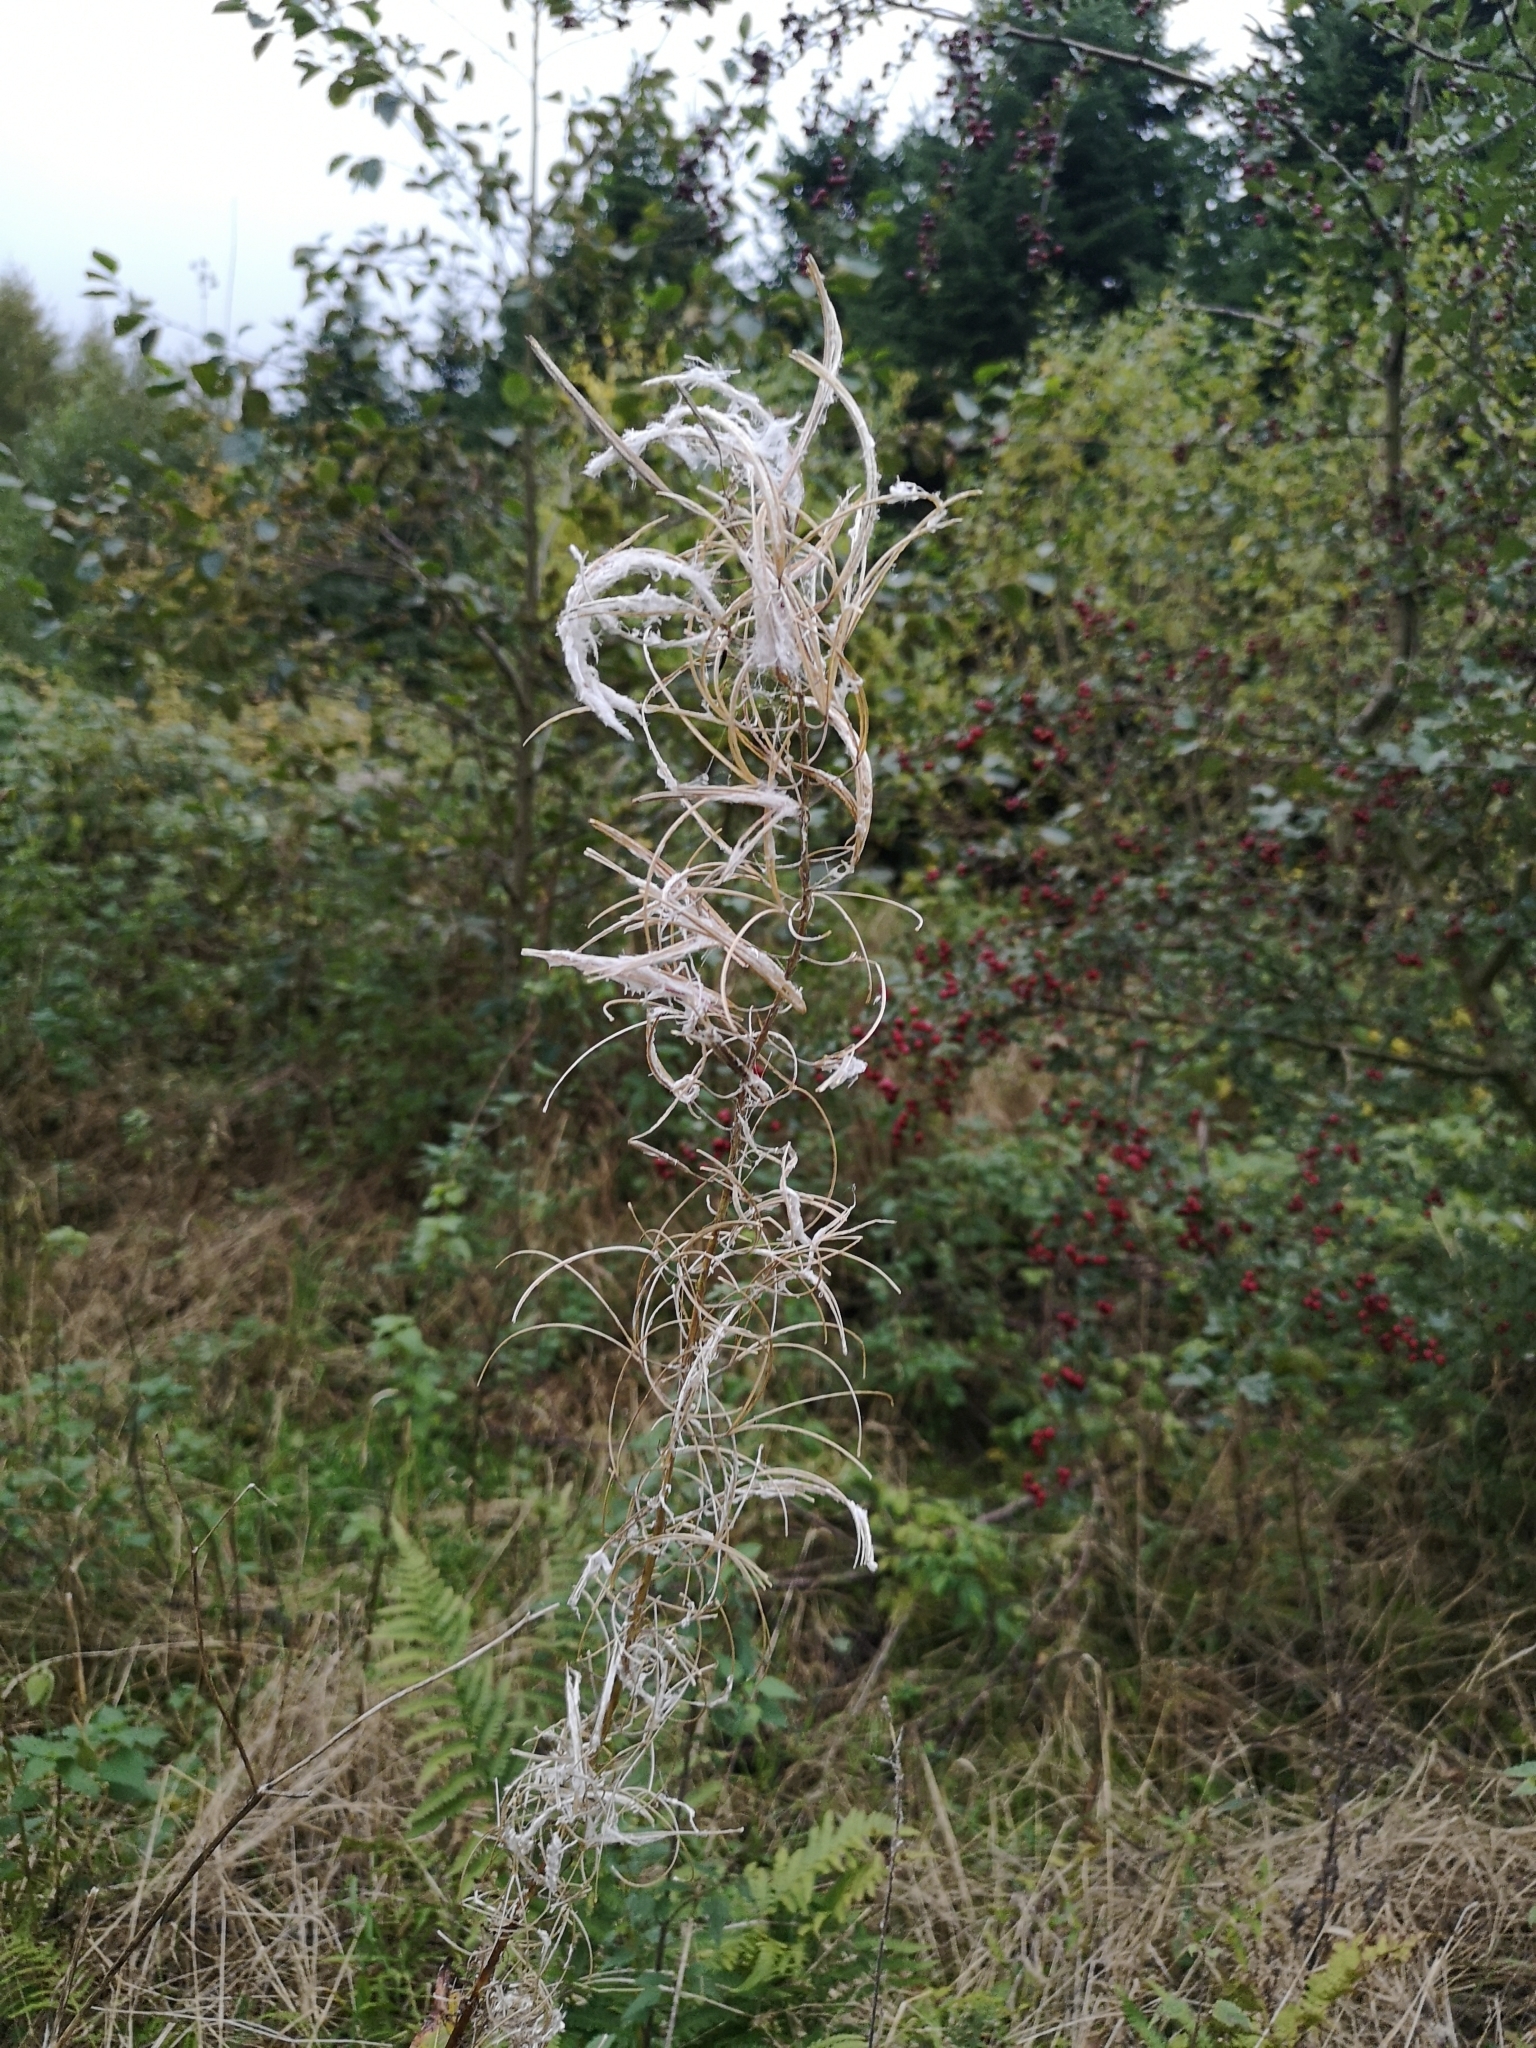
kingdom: Plantae
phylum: Tracheophyta
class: Magnoliopsida
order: Myrtales
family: Onagraceae
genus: Chamaenerion
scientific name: Chamaenerion angustifolium
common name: Fireweed
